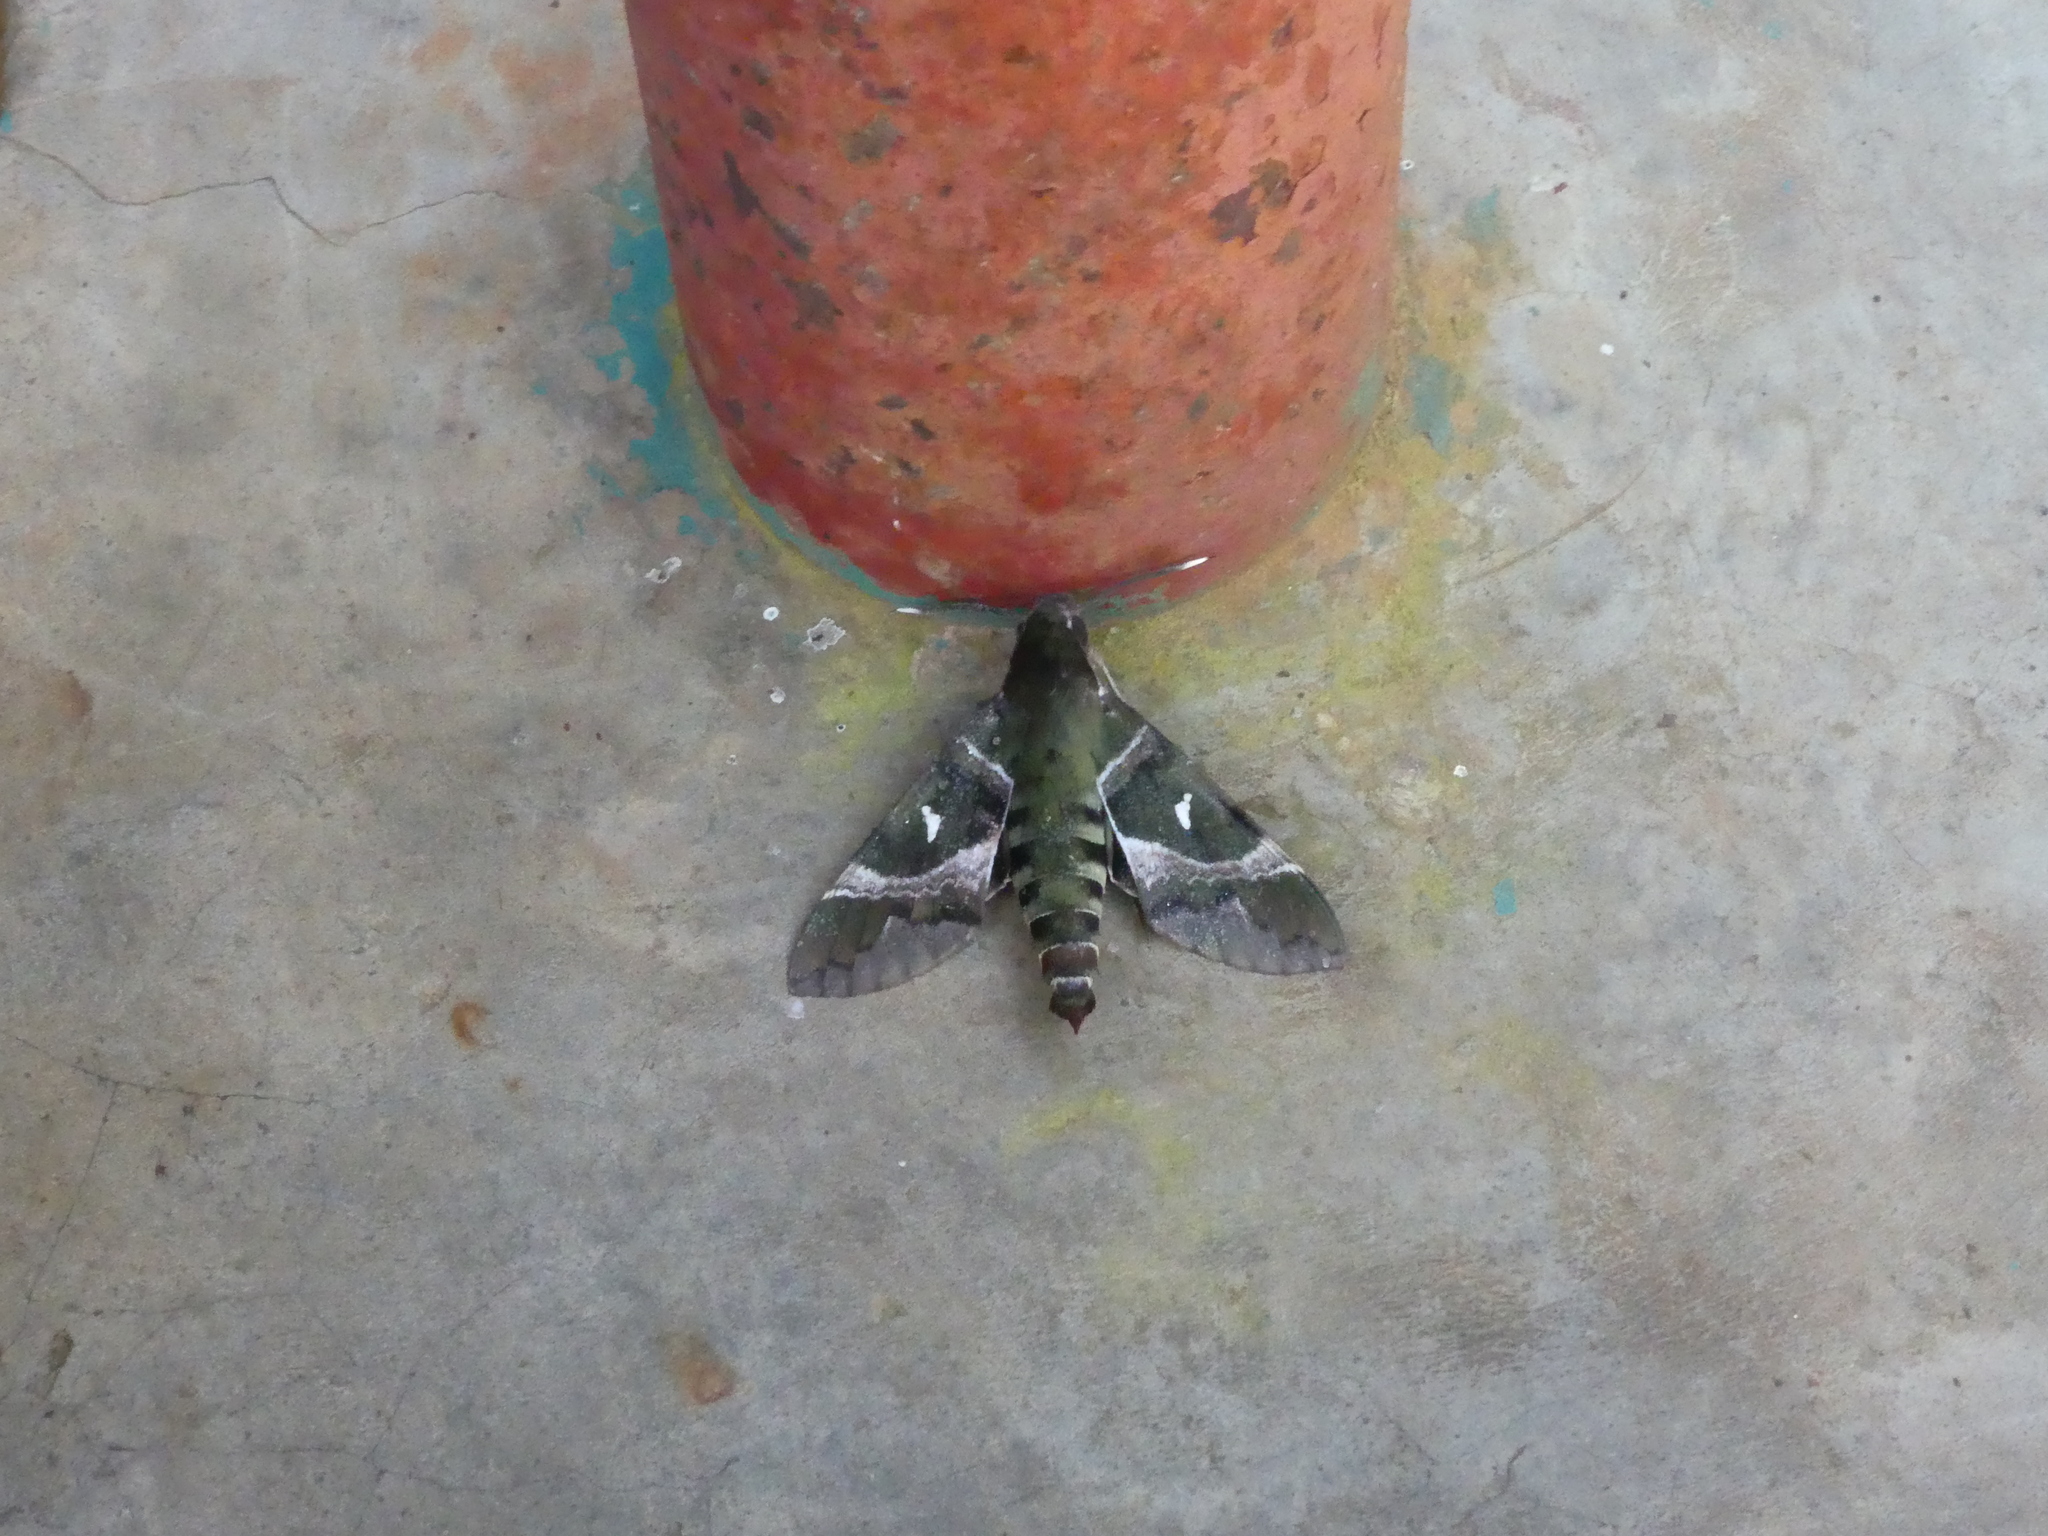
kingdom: Animalia
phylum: Arthropoda
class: Insecta
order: Lepidoptera
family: Sphingidae
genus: Nephele
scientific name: Nephele argentifera
